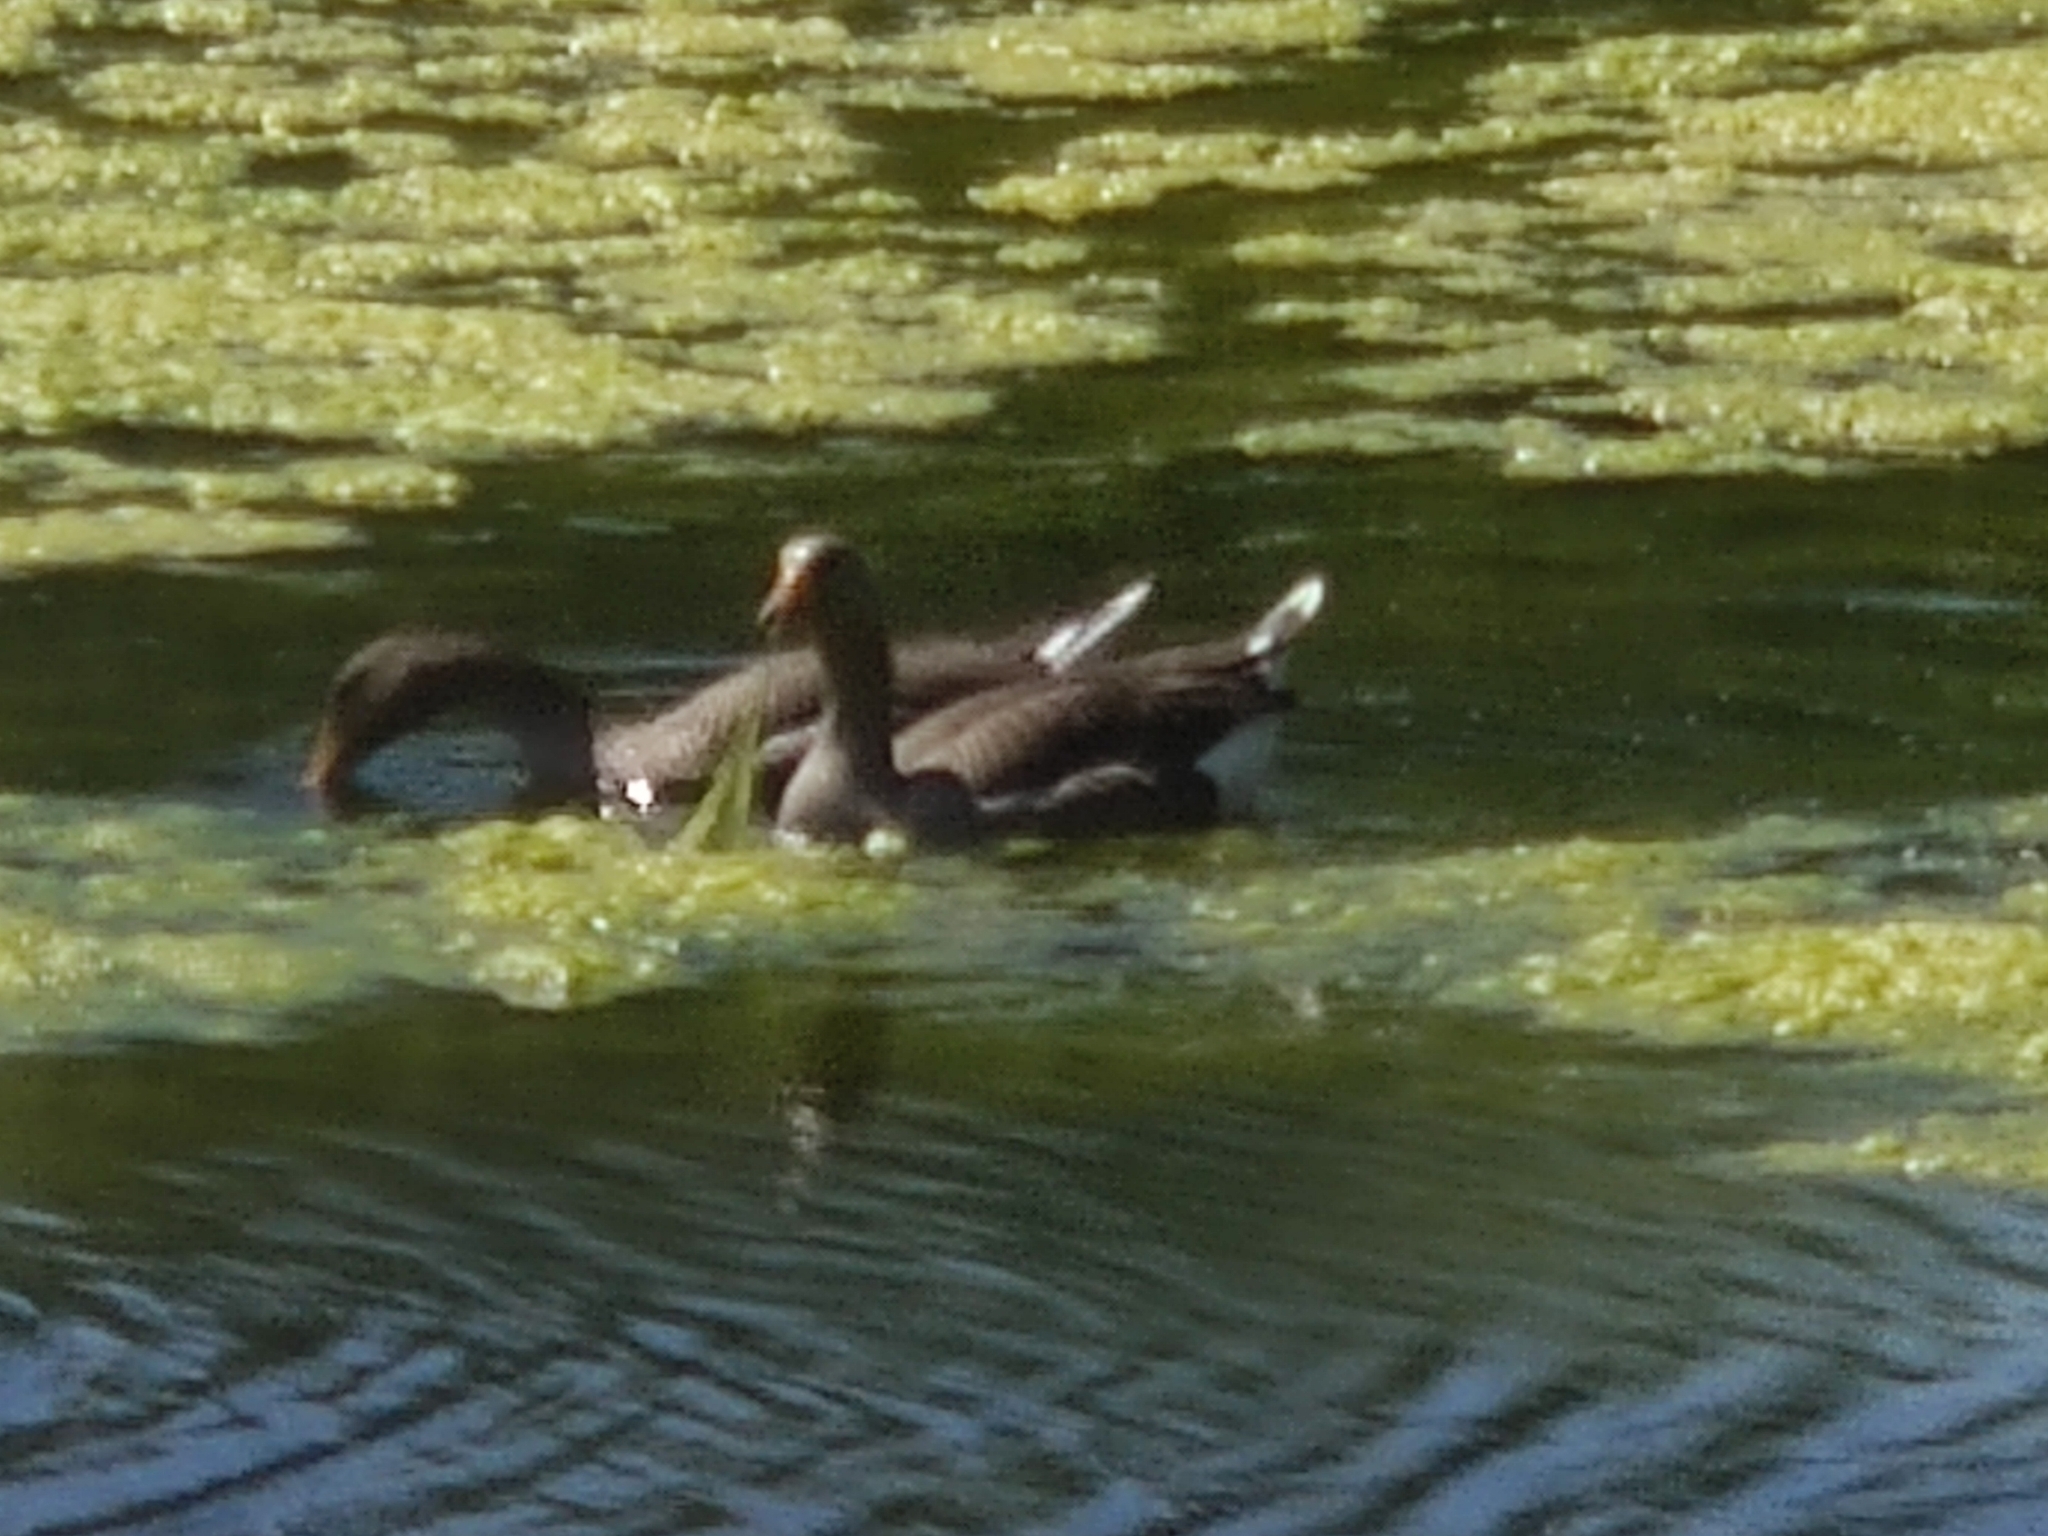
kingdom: Animalia
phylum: Chordata
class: Aves
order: Anseriformes
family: Anatidae
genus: Anser
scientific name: Anser anser
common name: Greylag goose
